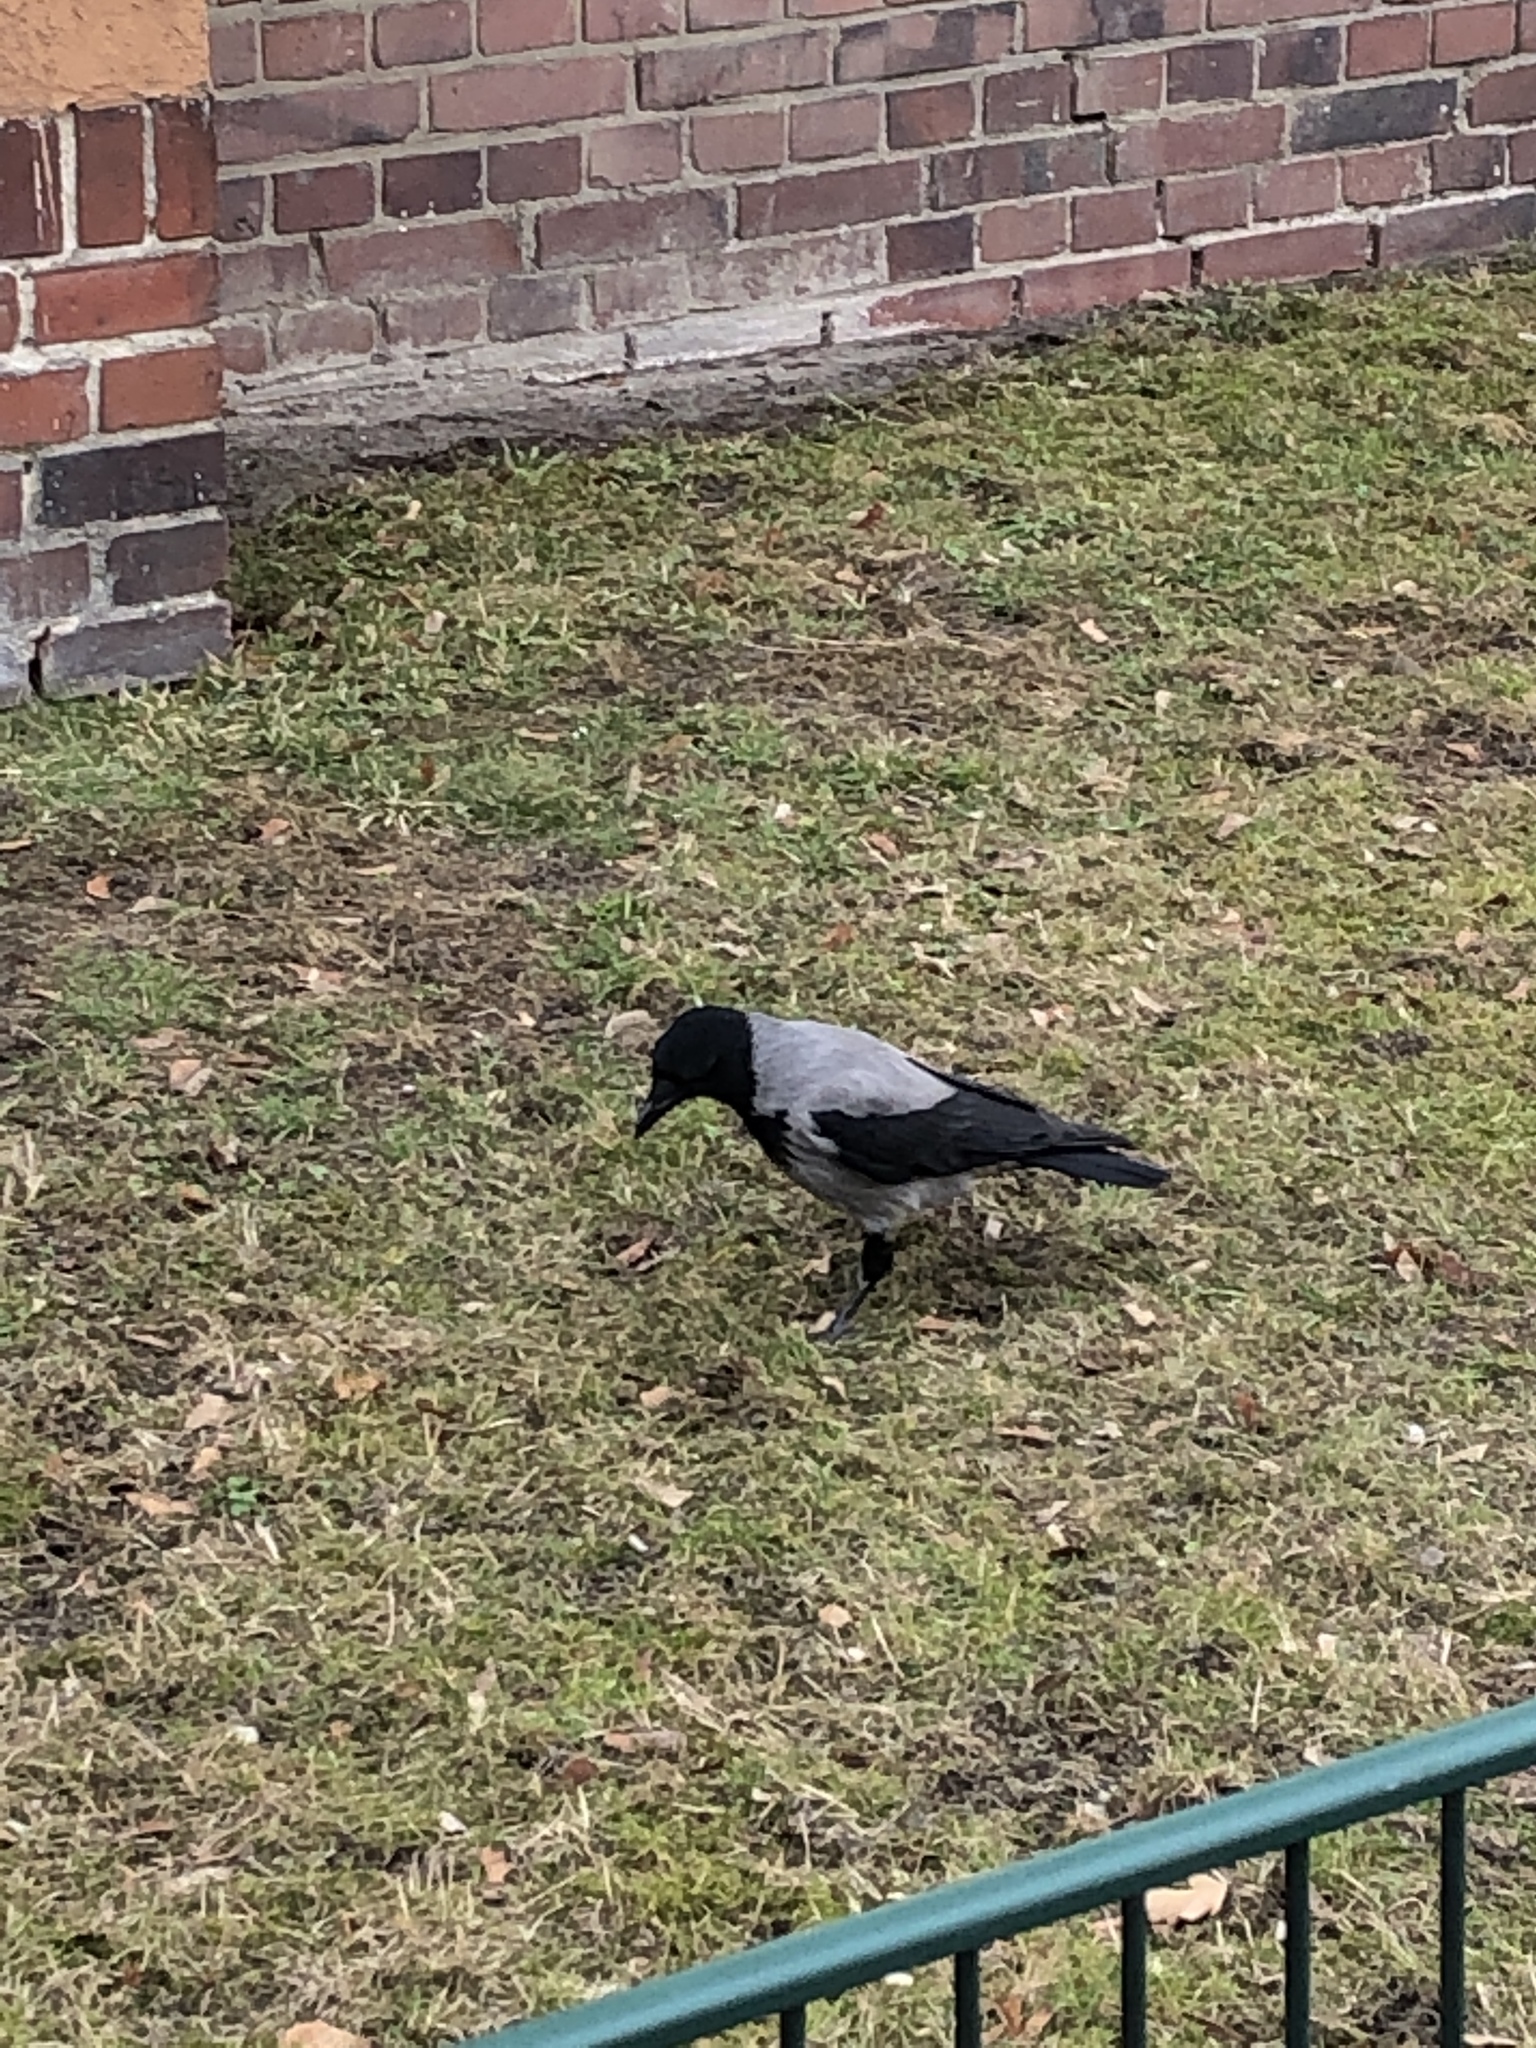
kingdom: Animalia
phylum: Chordata
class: Aves
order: Passeriformes
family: Corvidae
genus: Corvus
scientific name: Corvus cornix
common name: Hooded crow
